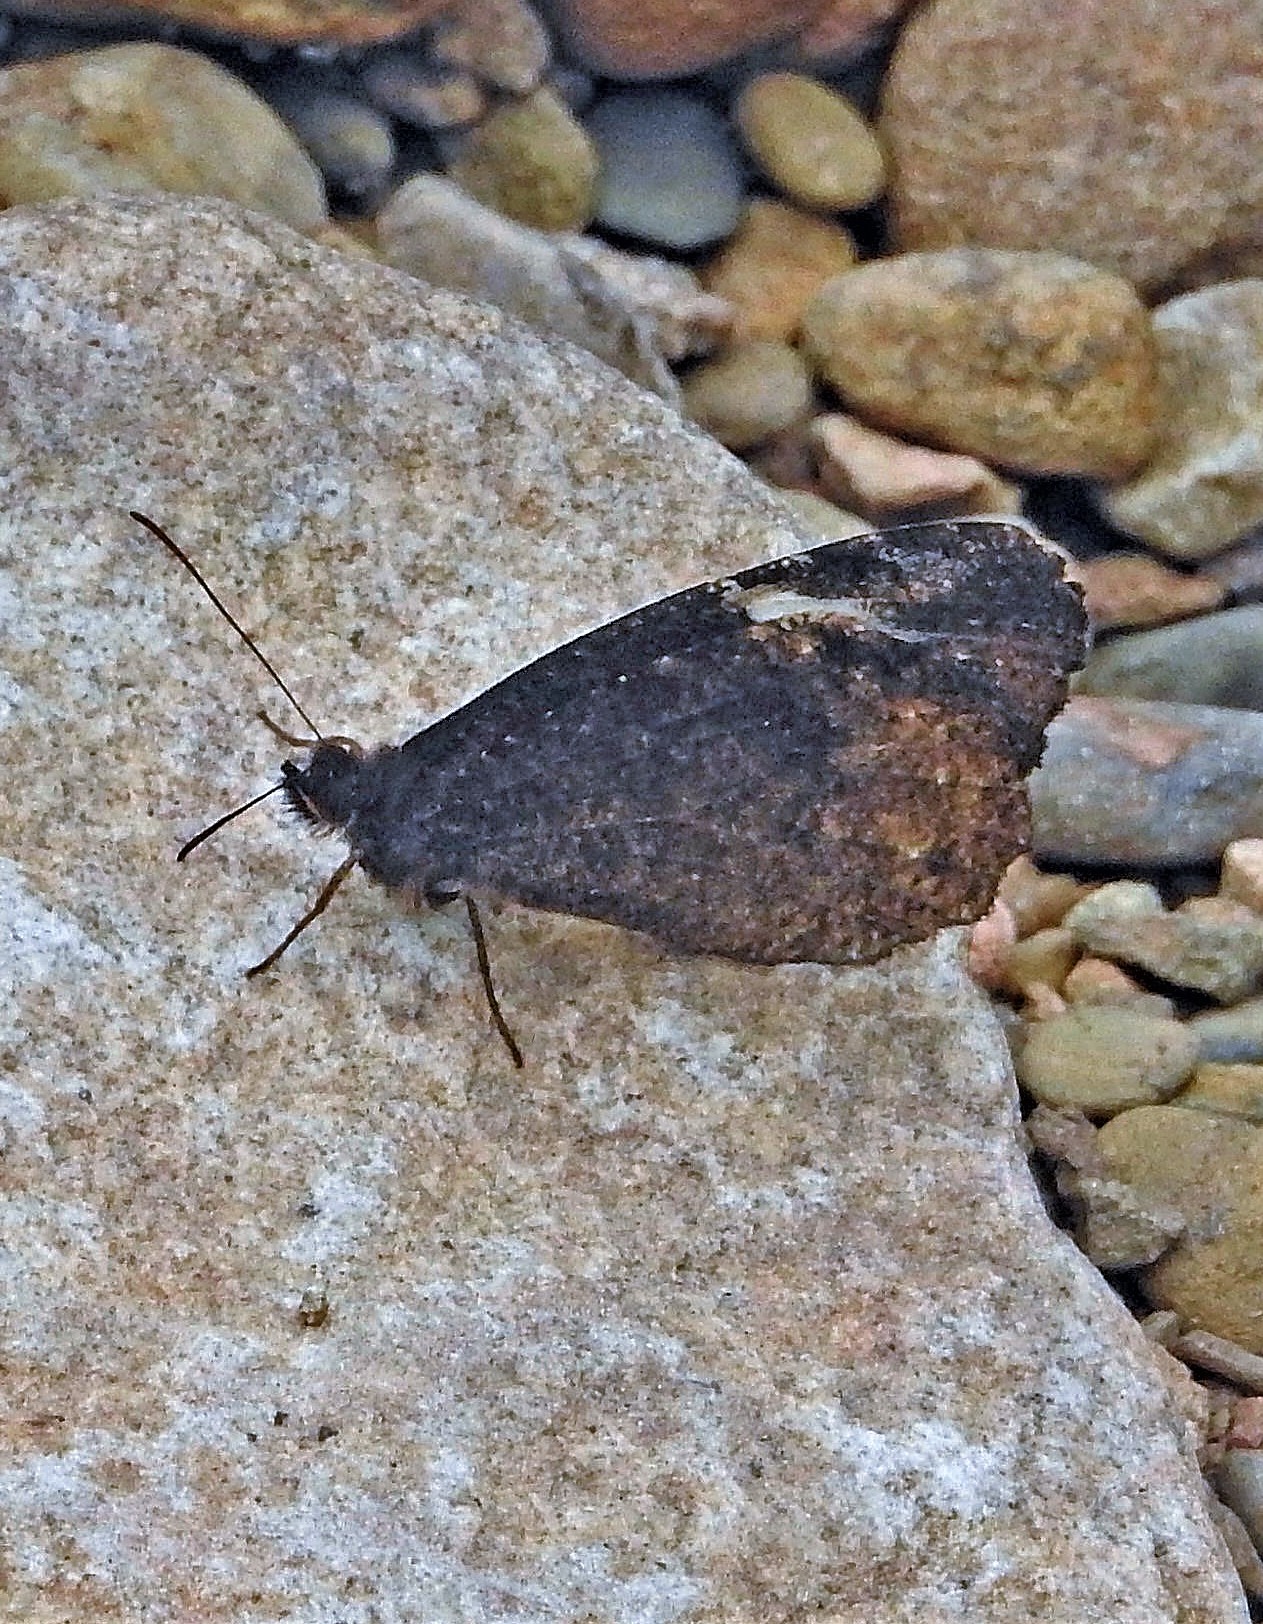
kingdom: Animalia
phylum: Arthropoda
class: Insecta
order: Lepidoptera
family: Nymphalidae
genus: Pedaliodes
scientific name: Pedaliodes porina
